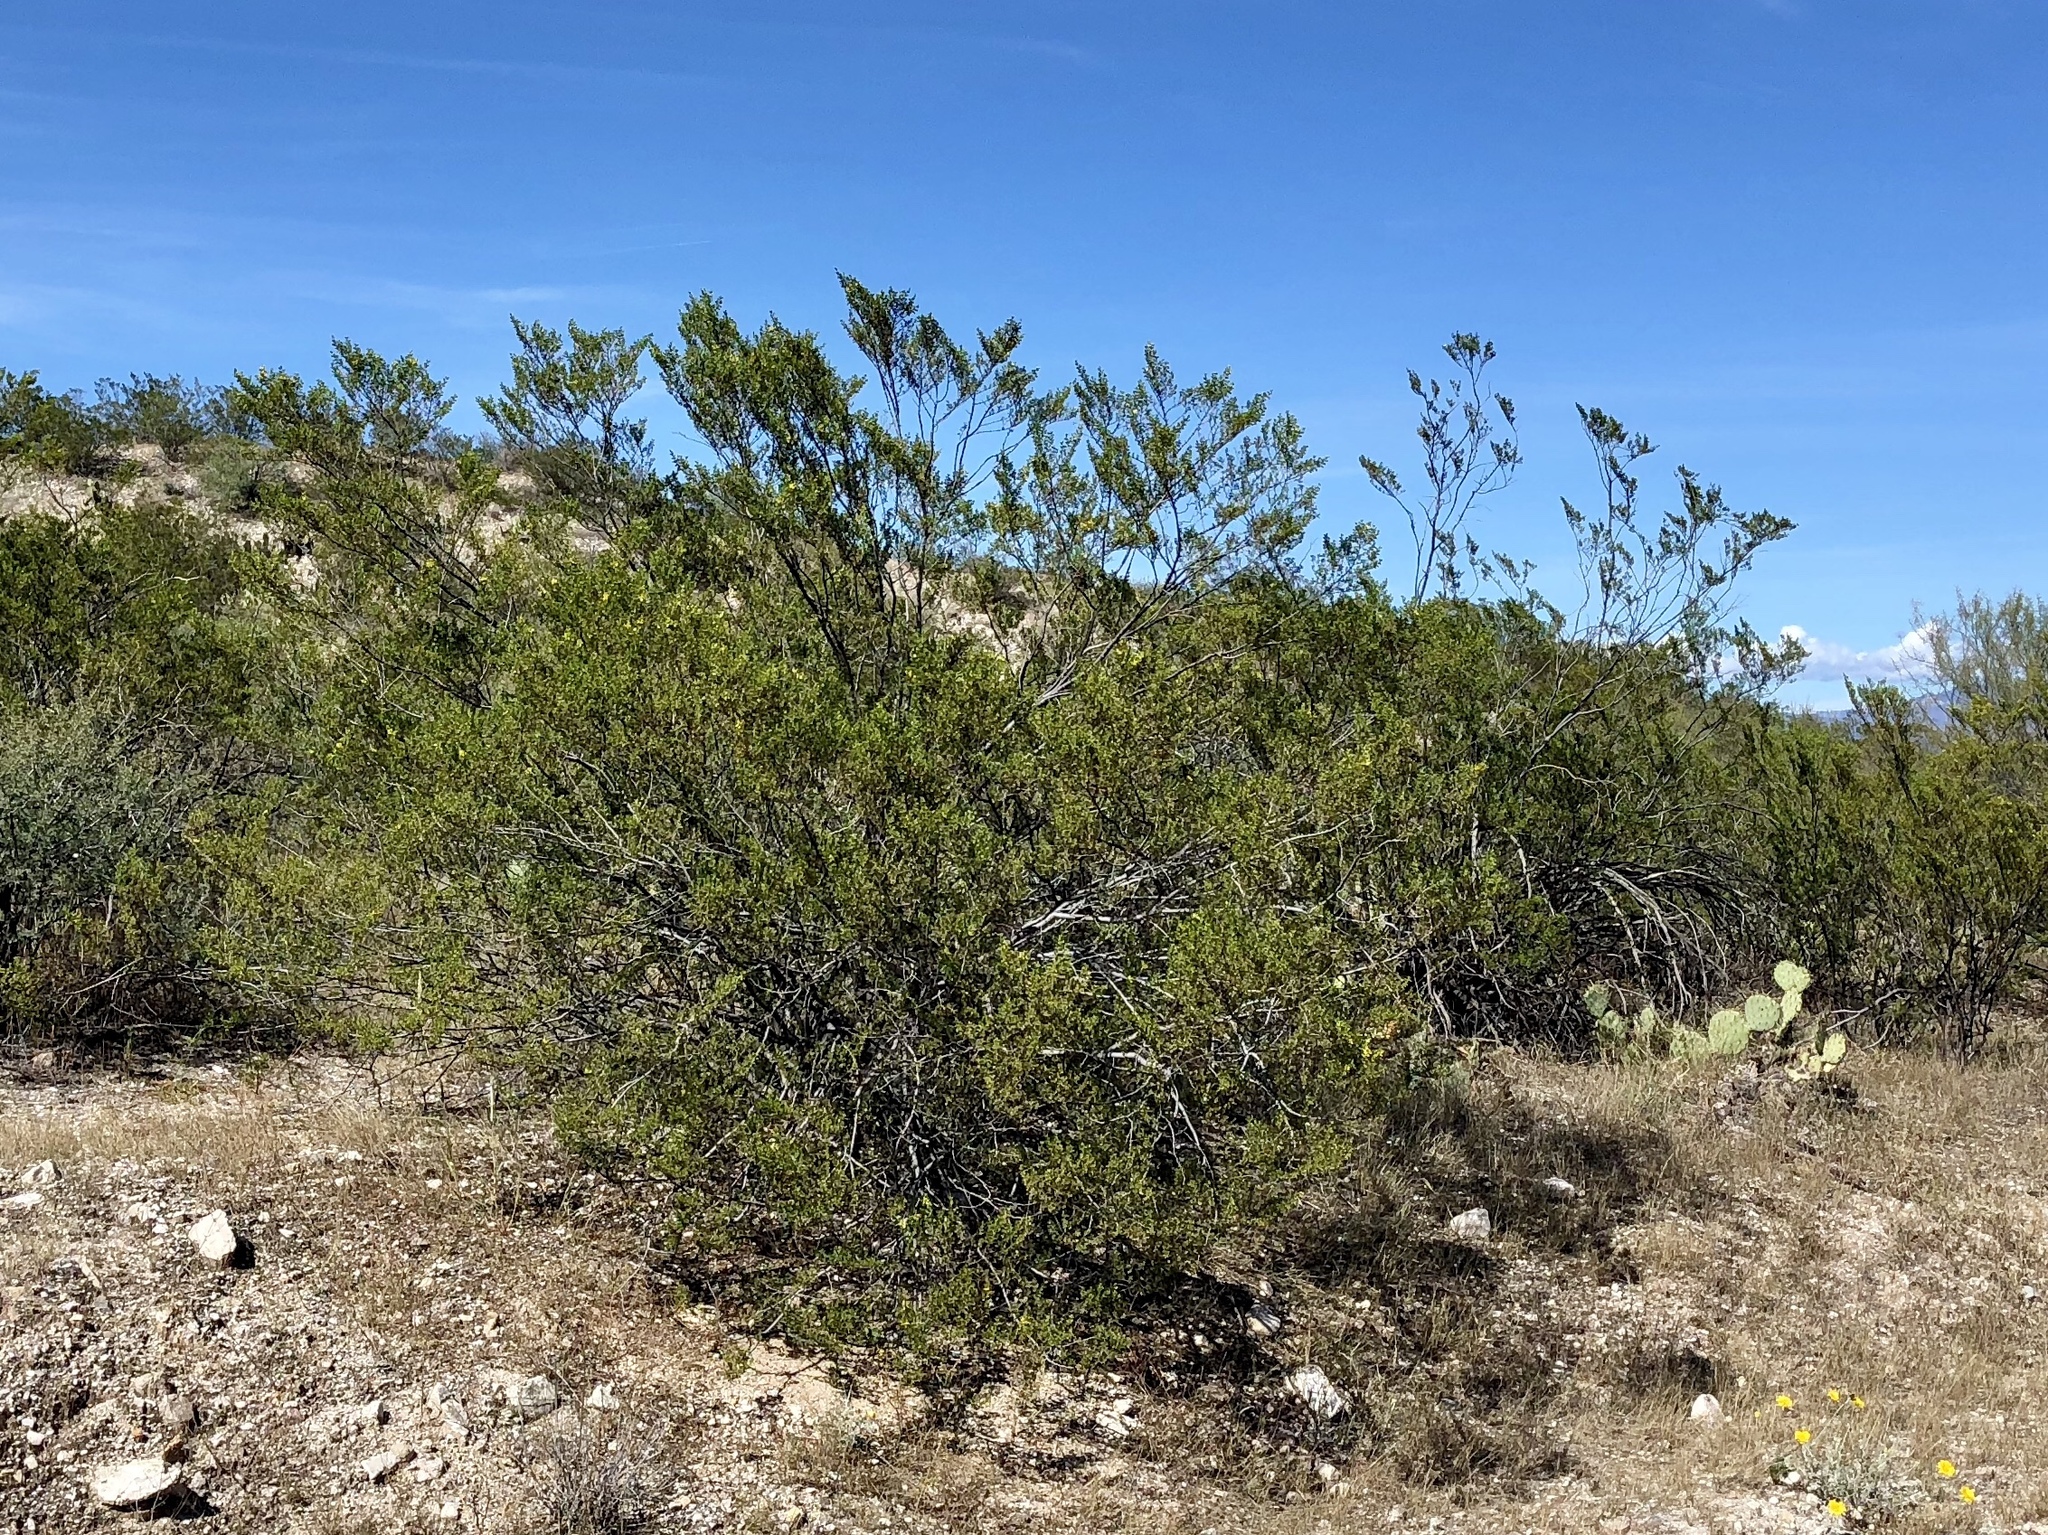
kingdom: Plantae
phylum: Tracheophyta
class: Magnoliopsida
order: Zygophyllales
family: Zygophyllaceae
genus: Larrea
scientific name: Larrea tridentata
